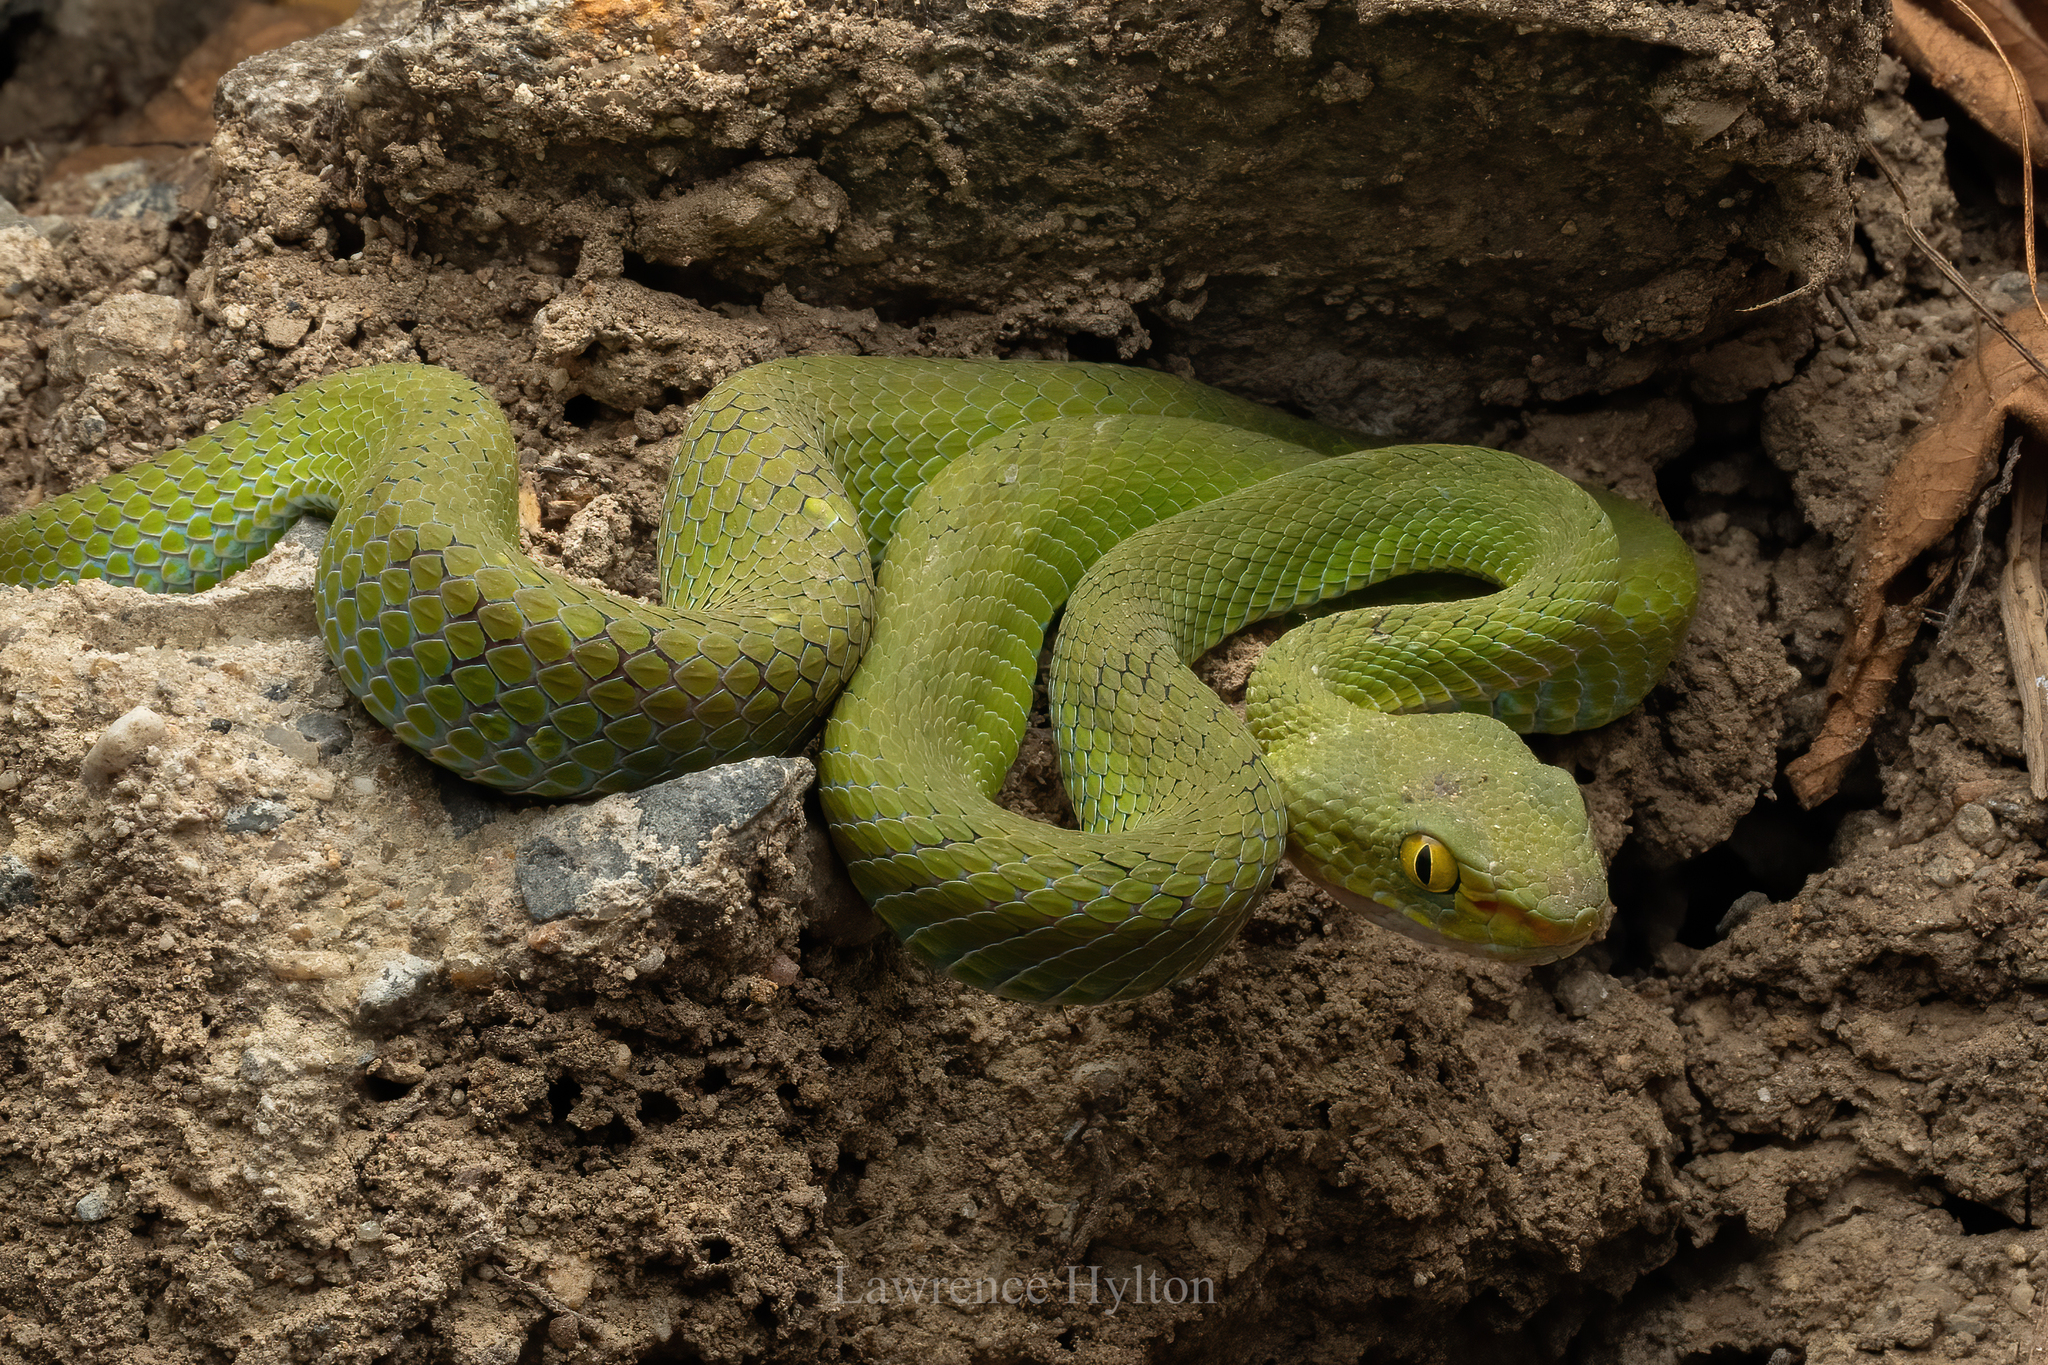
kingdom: Animalia
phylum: Chordata
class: Squamata
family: Viperidae
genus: Trimeresurus
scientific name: Trimeresurus macrops
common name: Kramer's pit viper
